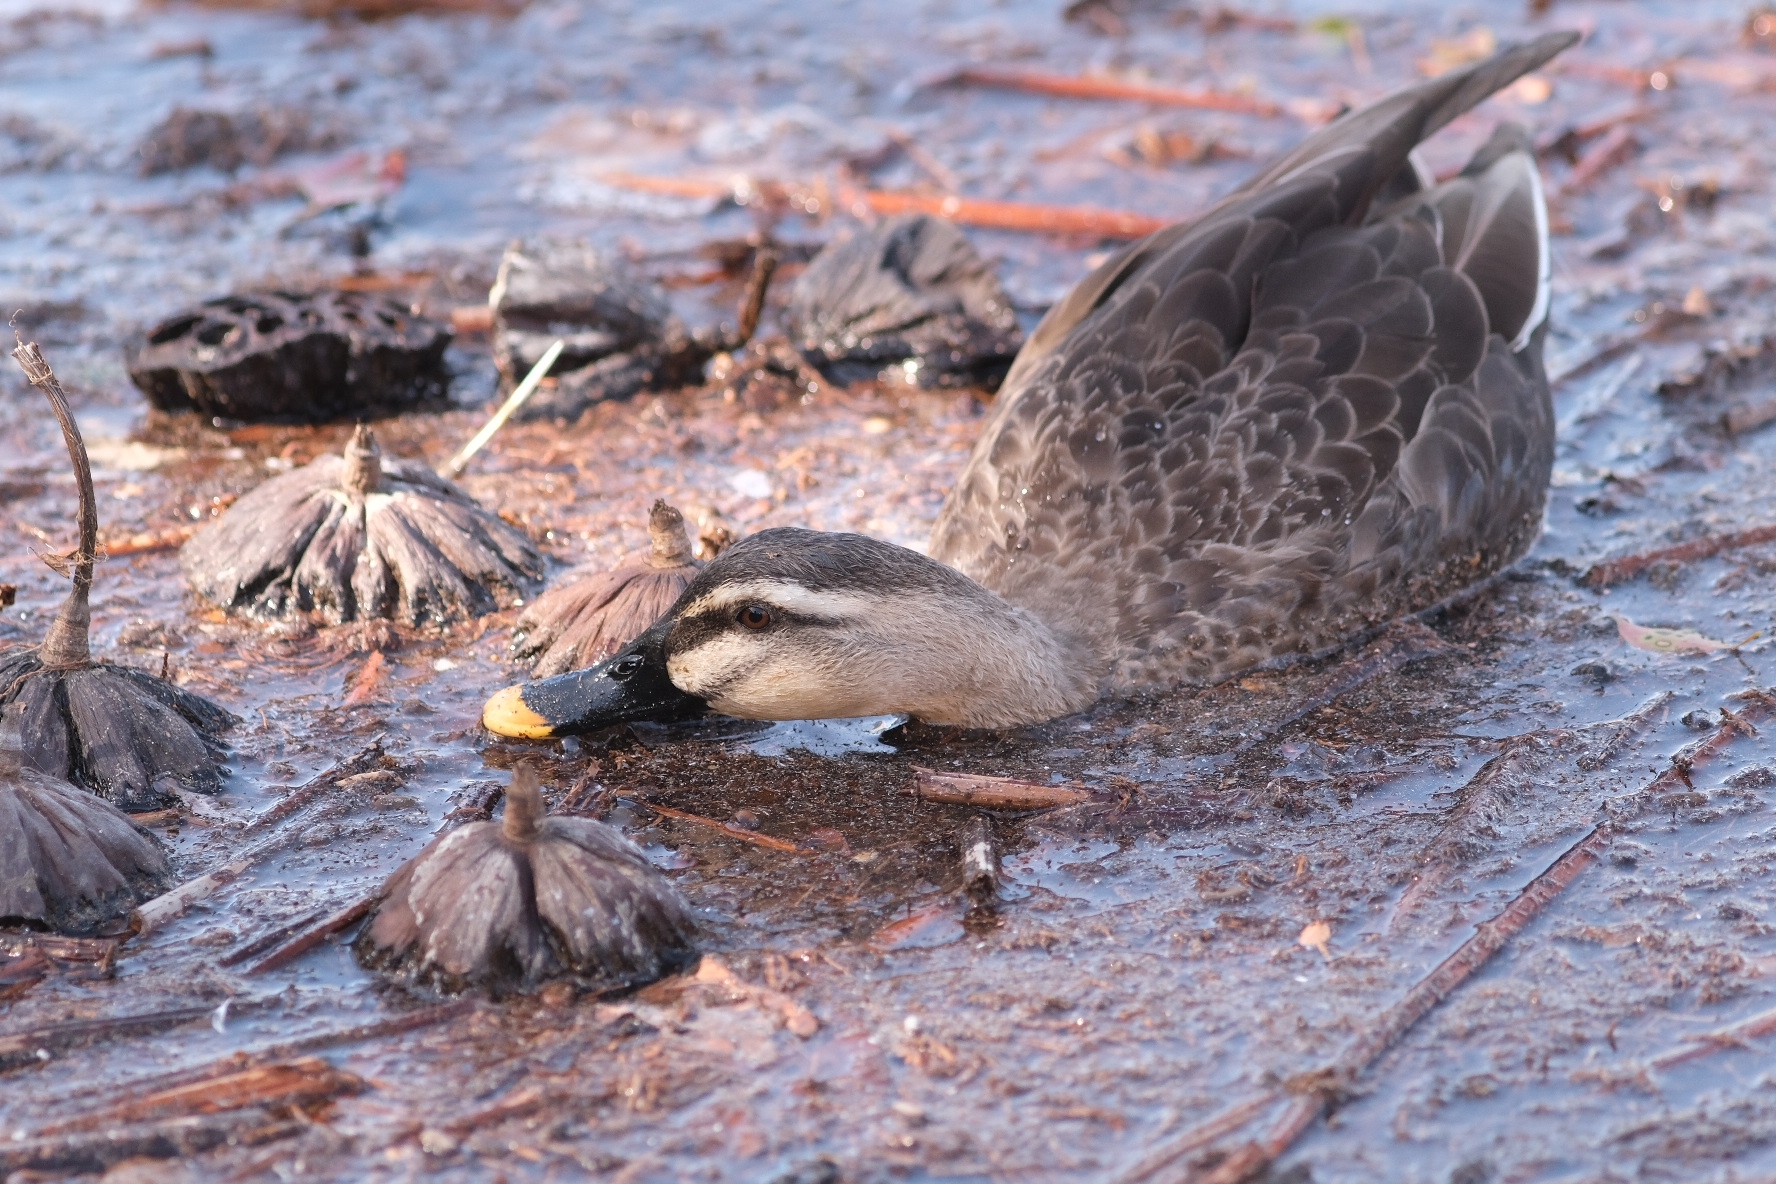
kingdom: Animalia
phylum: Chordata
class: Aves
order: Anseriformes
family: Anatidae
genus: Anas
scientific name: Anas zonorhyncha
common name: Eastern spot-billed duck
